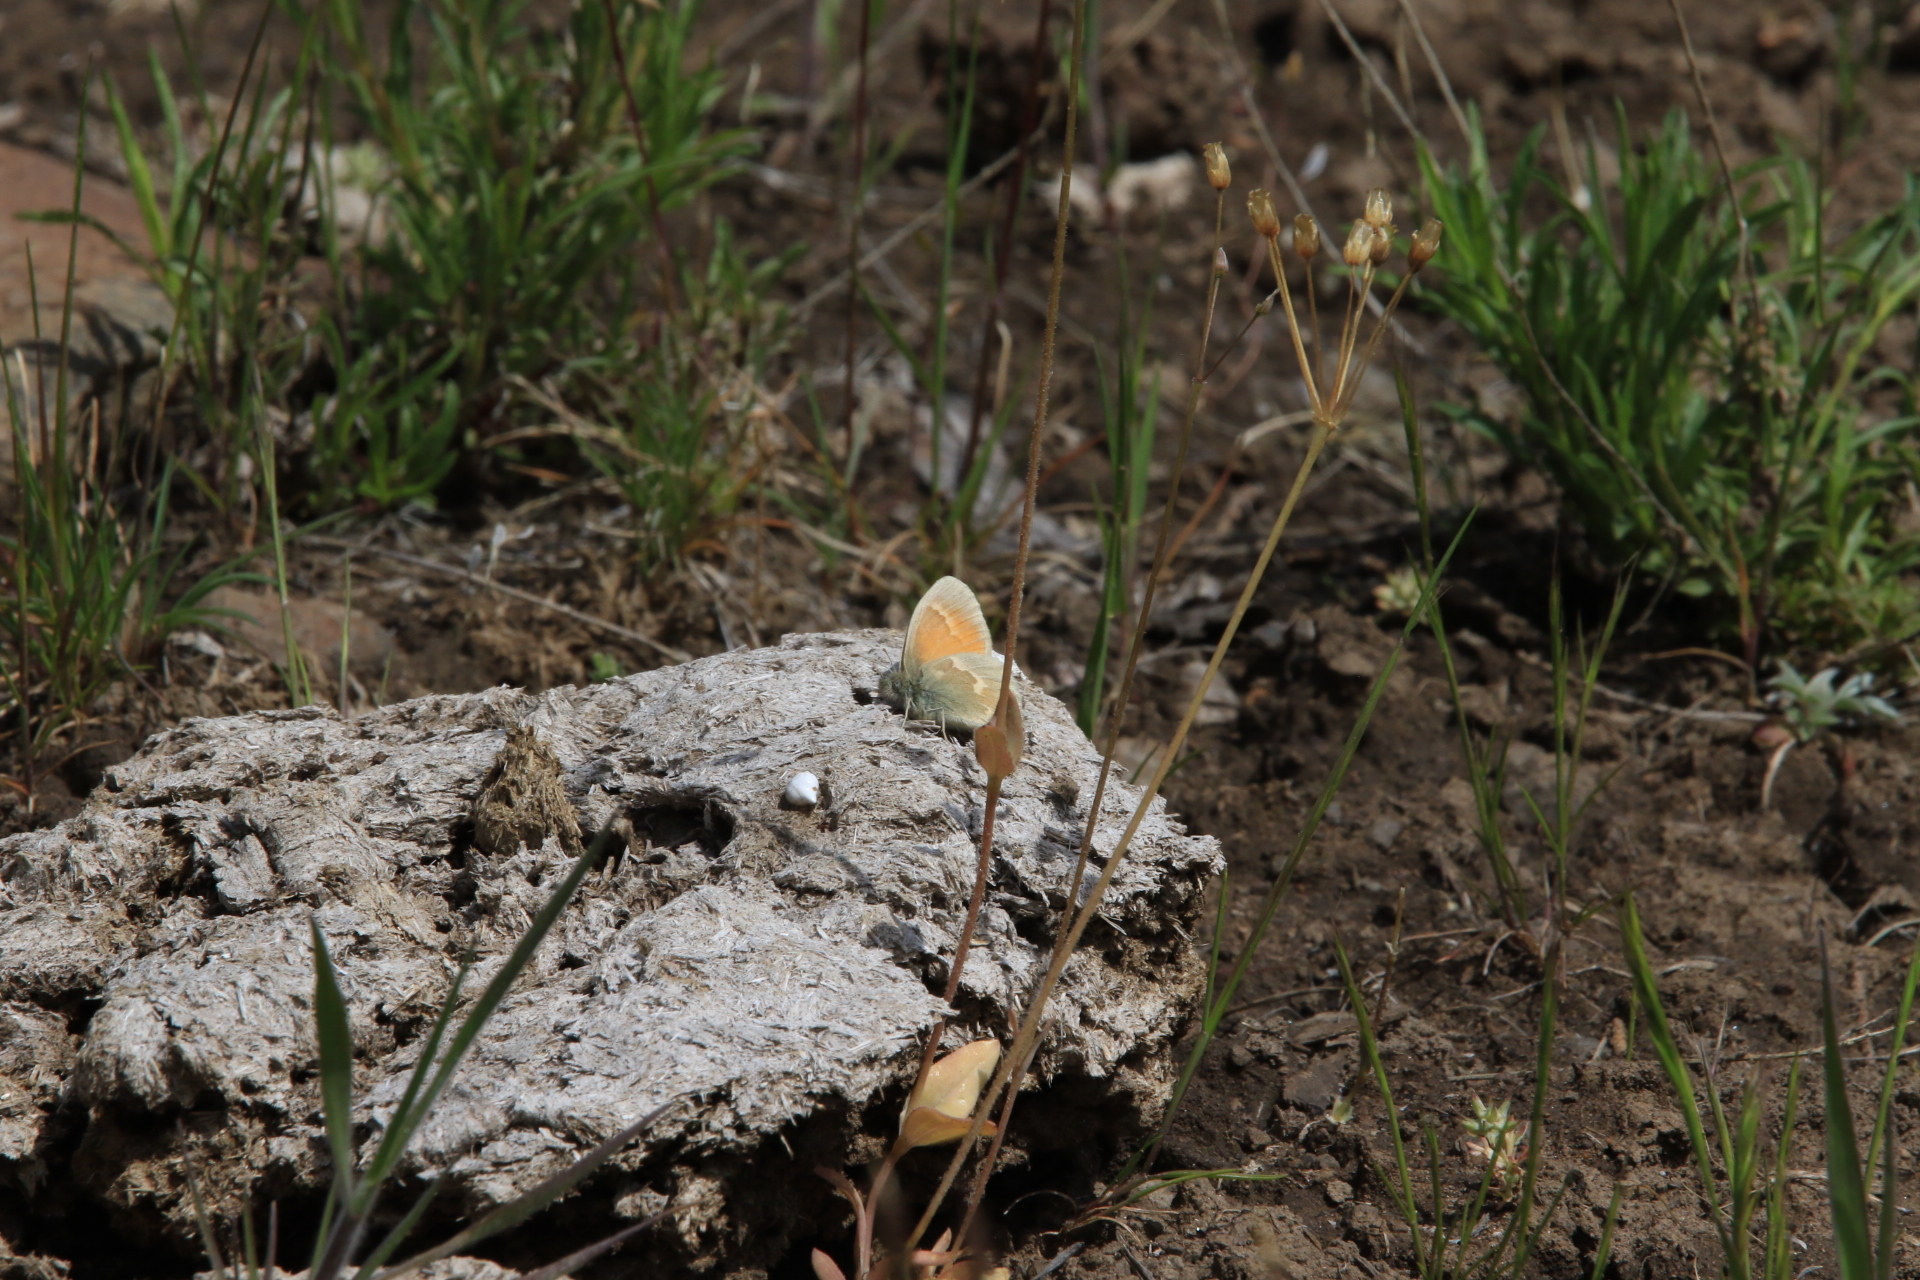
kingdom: Animalia
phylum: Arthropoda
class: Insecta
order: Lepidoptera
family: Nymphalidae
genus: Coenonympha
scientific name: Coenonympha california
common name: Common ringlet
